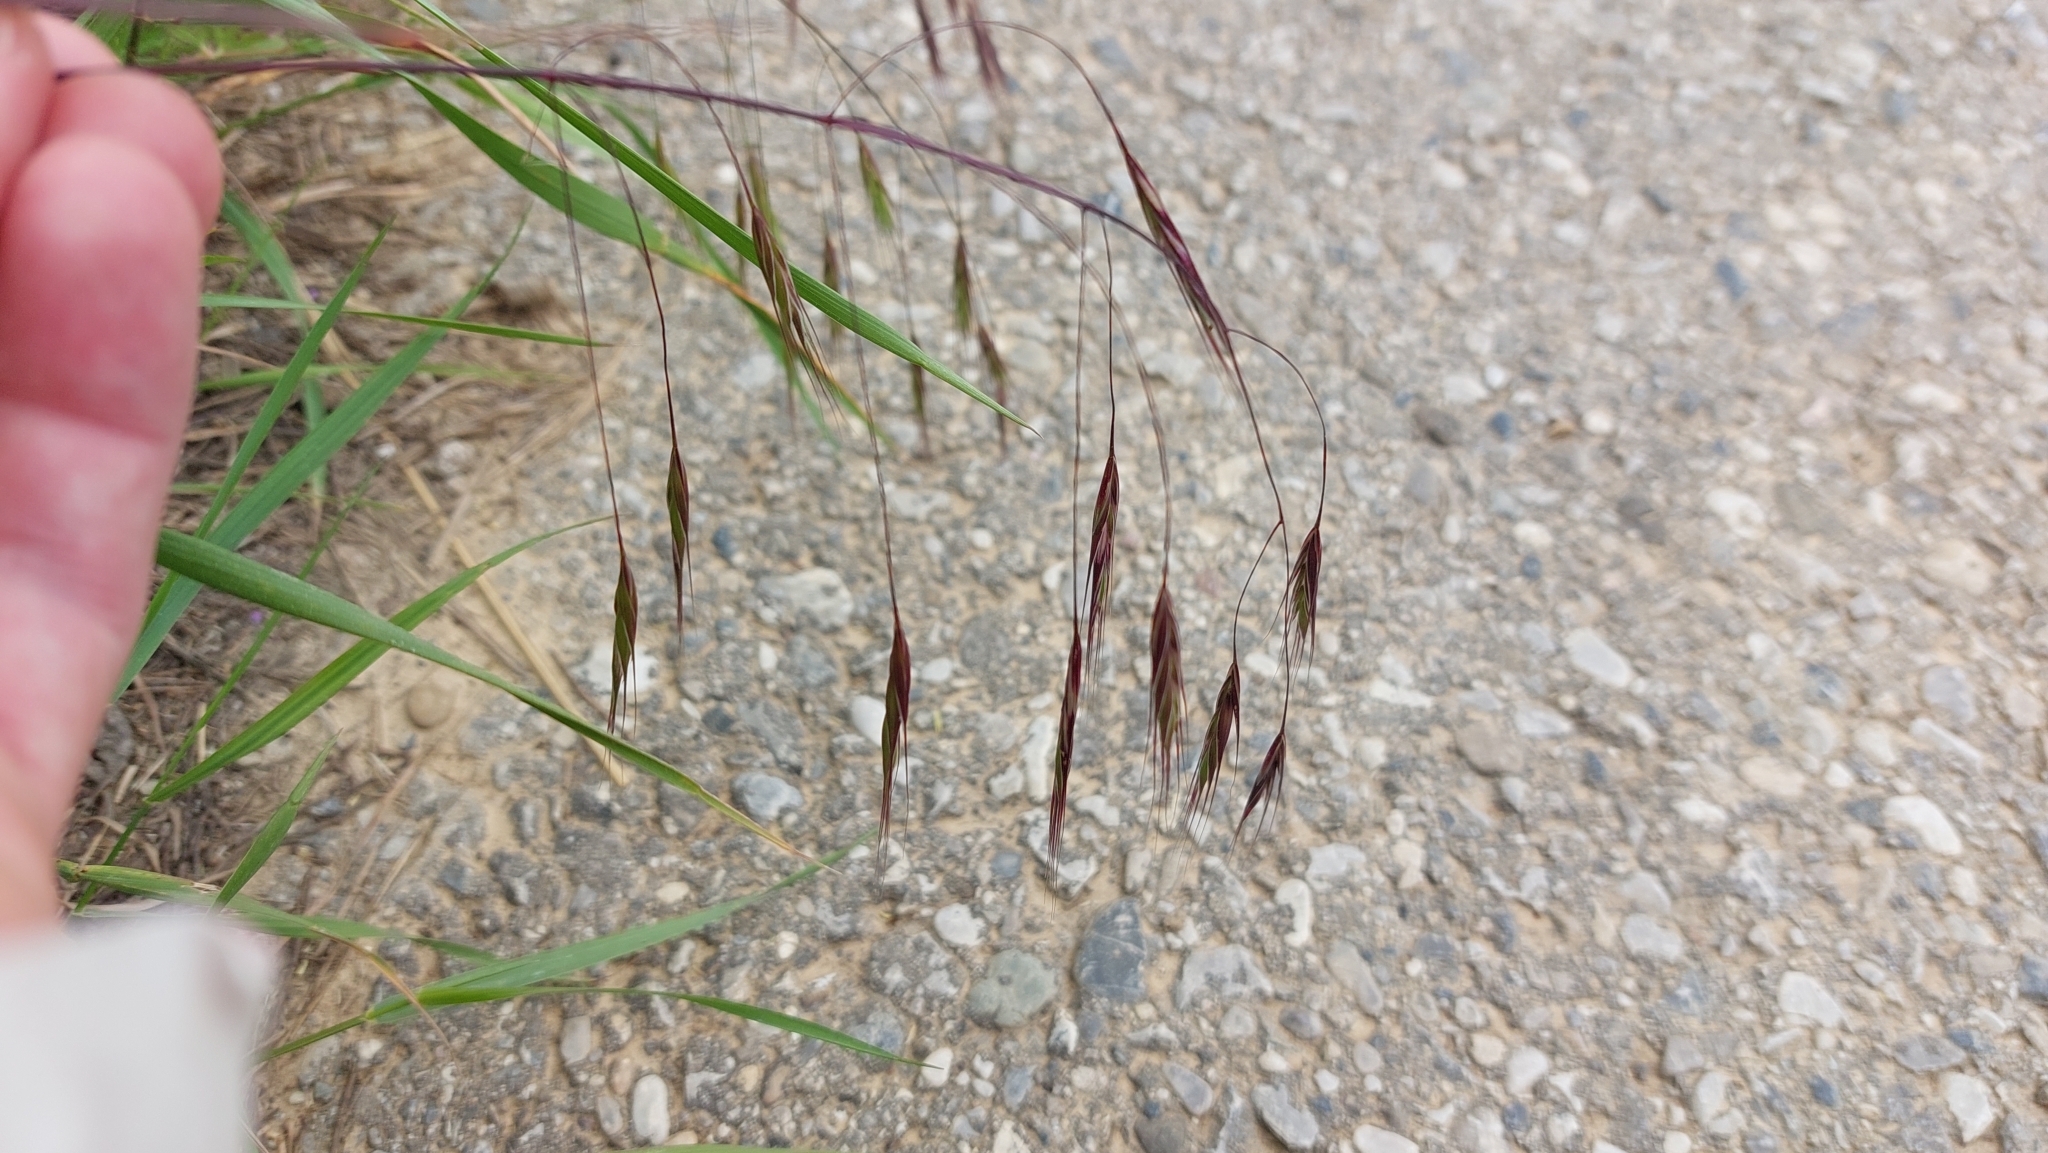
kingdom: Plantae
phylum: Tracheophyta
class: Liliopsida
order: Poales
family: Poaceae
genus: Bromus
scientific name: Bromus sterilis
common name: Poverty brome
